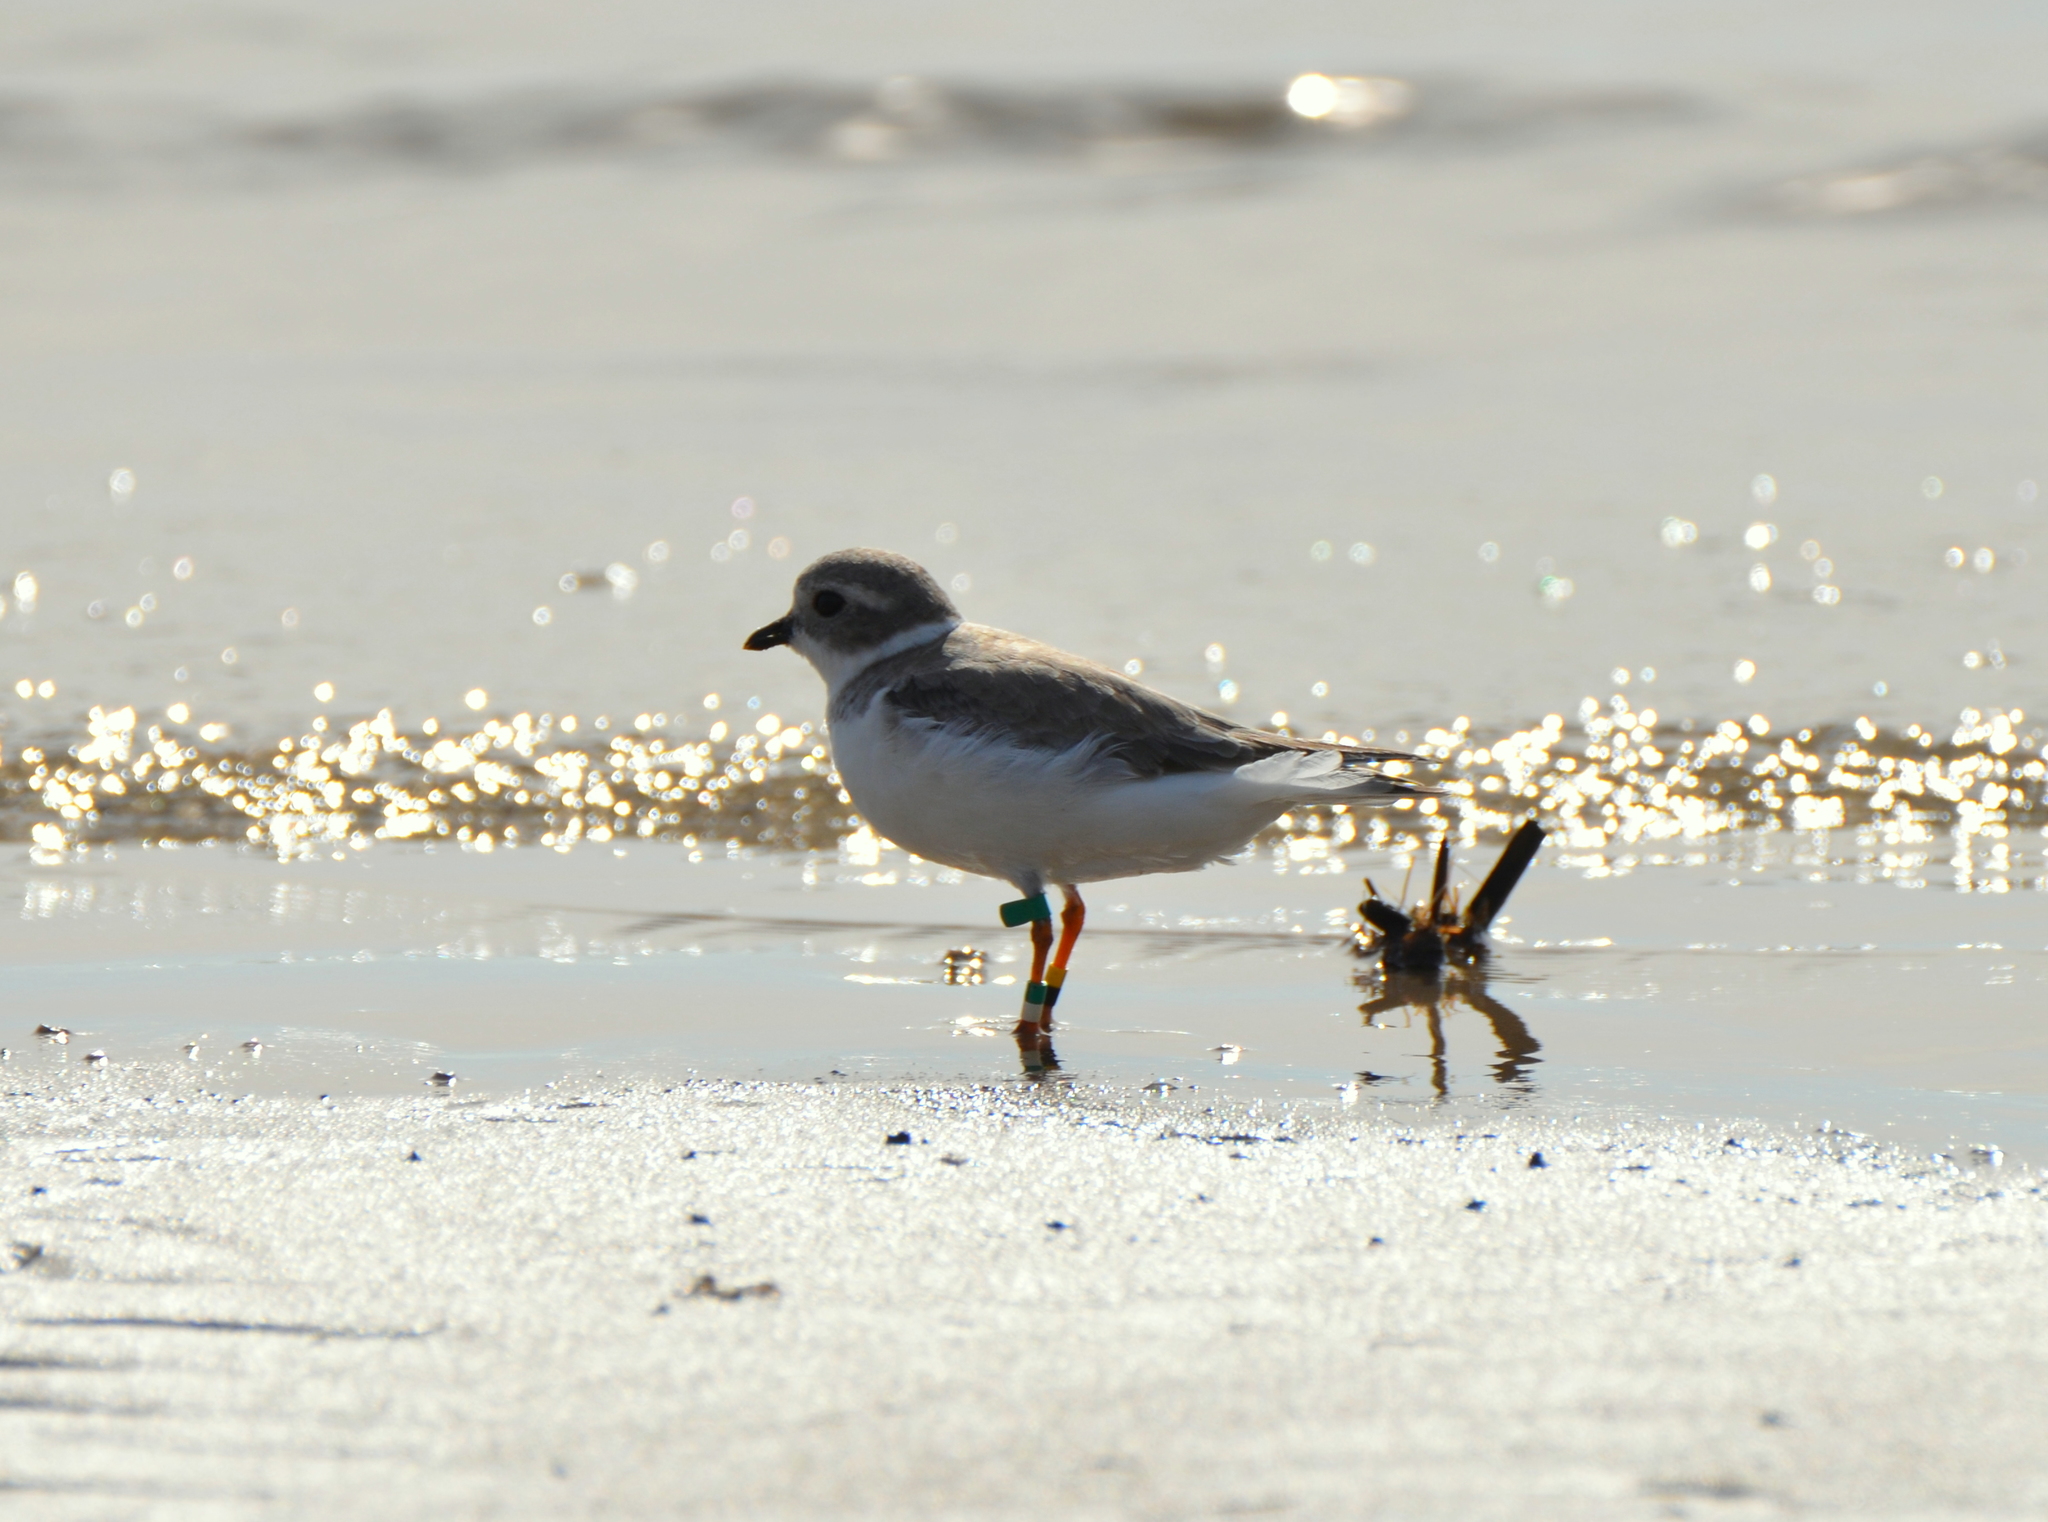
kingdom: Animalia
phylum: Chordata
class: Aves
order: Charadriiformes
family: Charadriidae
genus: Charadrius
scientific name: Charadrius melodus
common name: Piping plover
